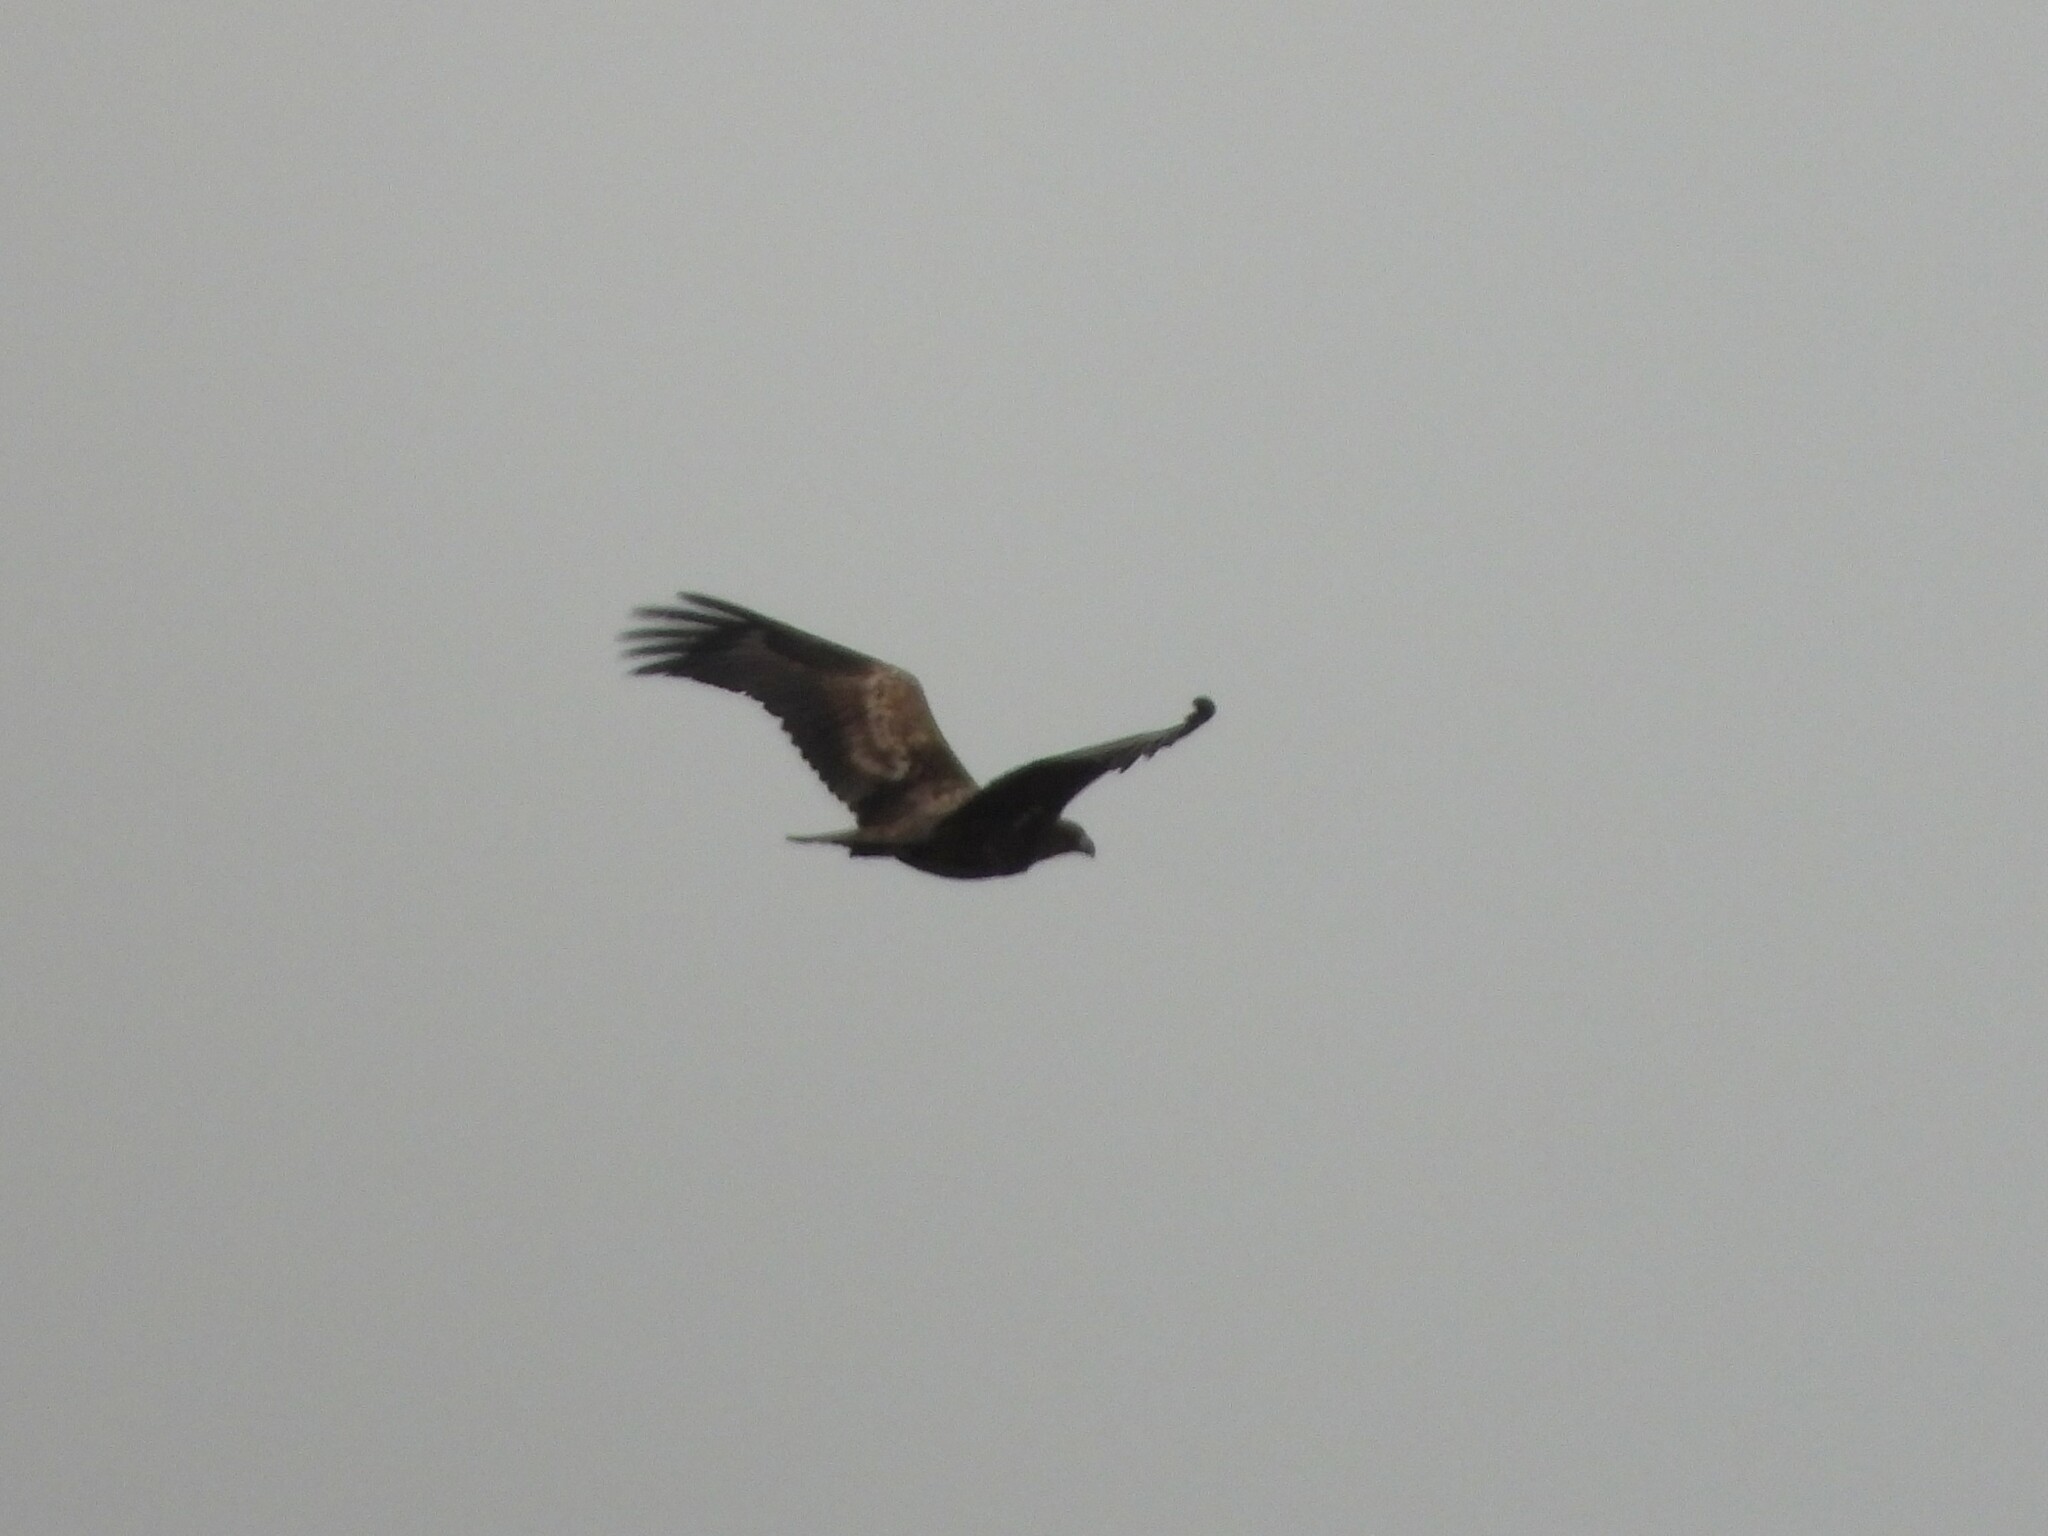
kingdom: Animalia
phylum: Chordata
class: Aves
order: Accipitriformes
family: Accipitridae
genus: Haliaeetus
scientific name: Haliaeetus albicilla
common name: White-tailed eagle
